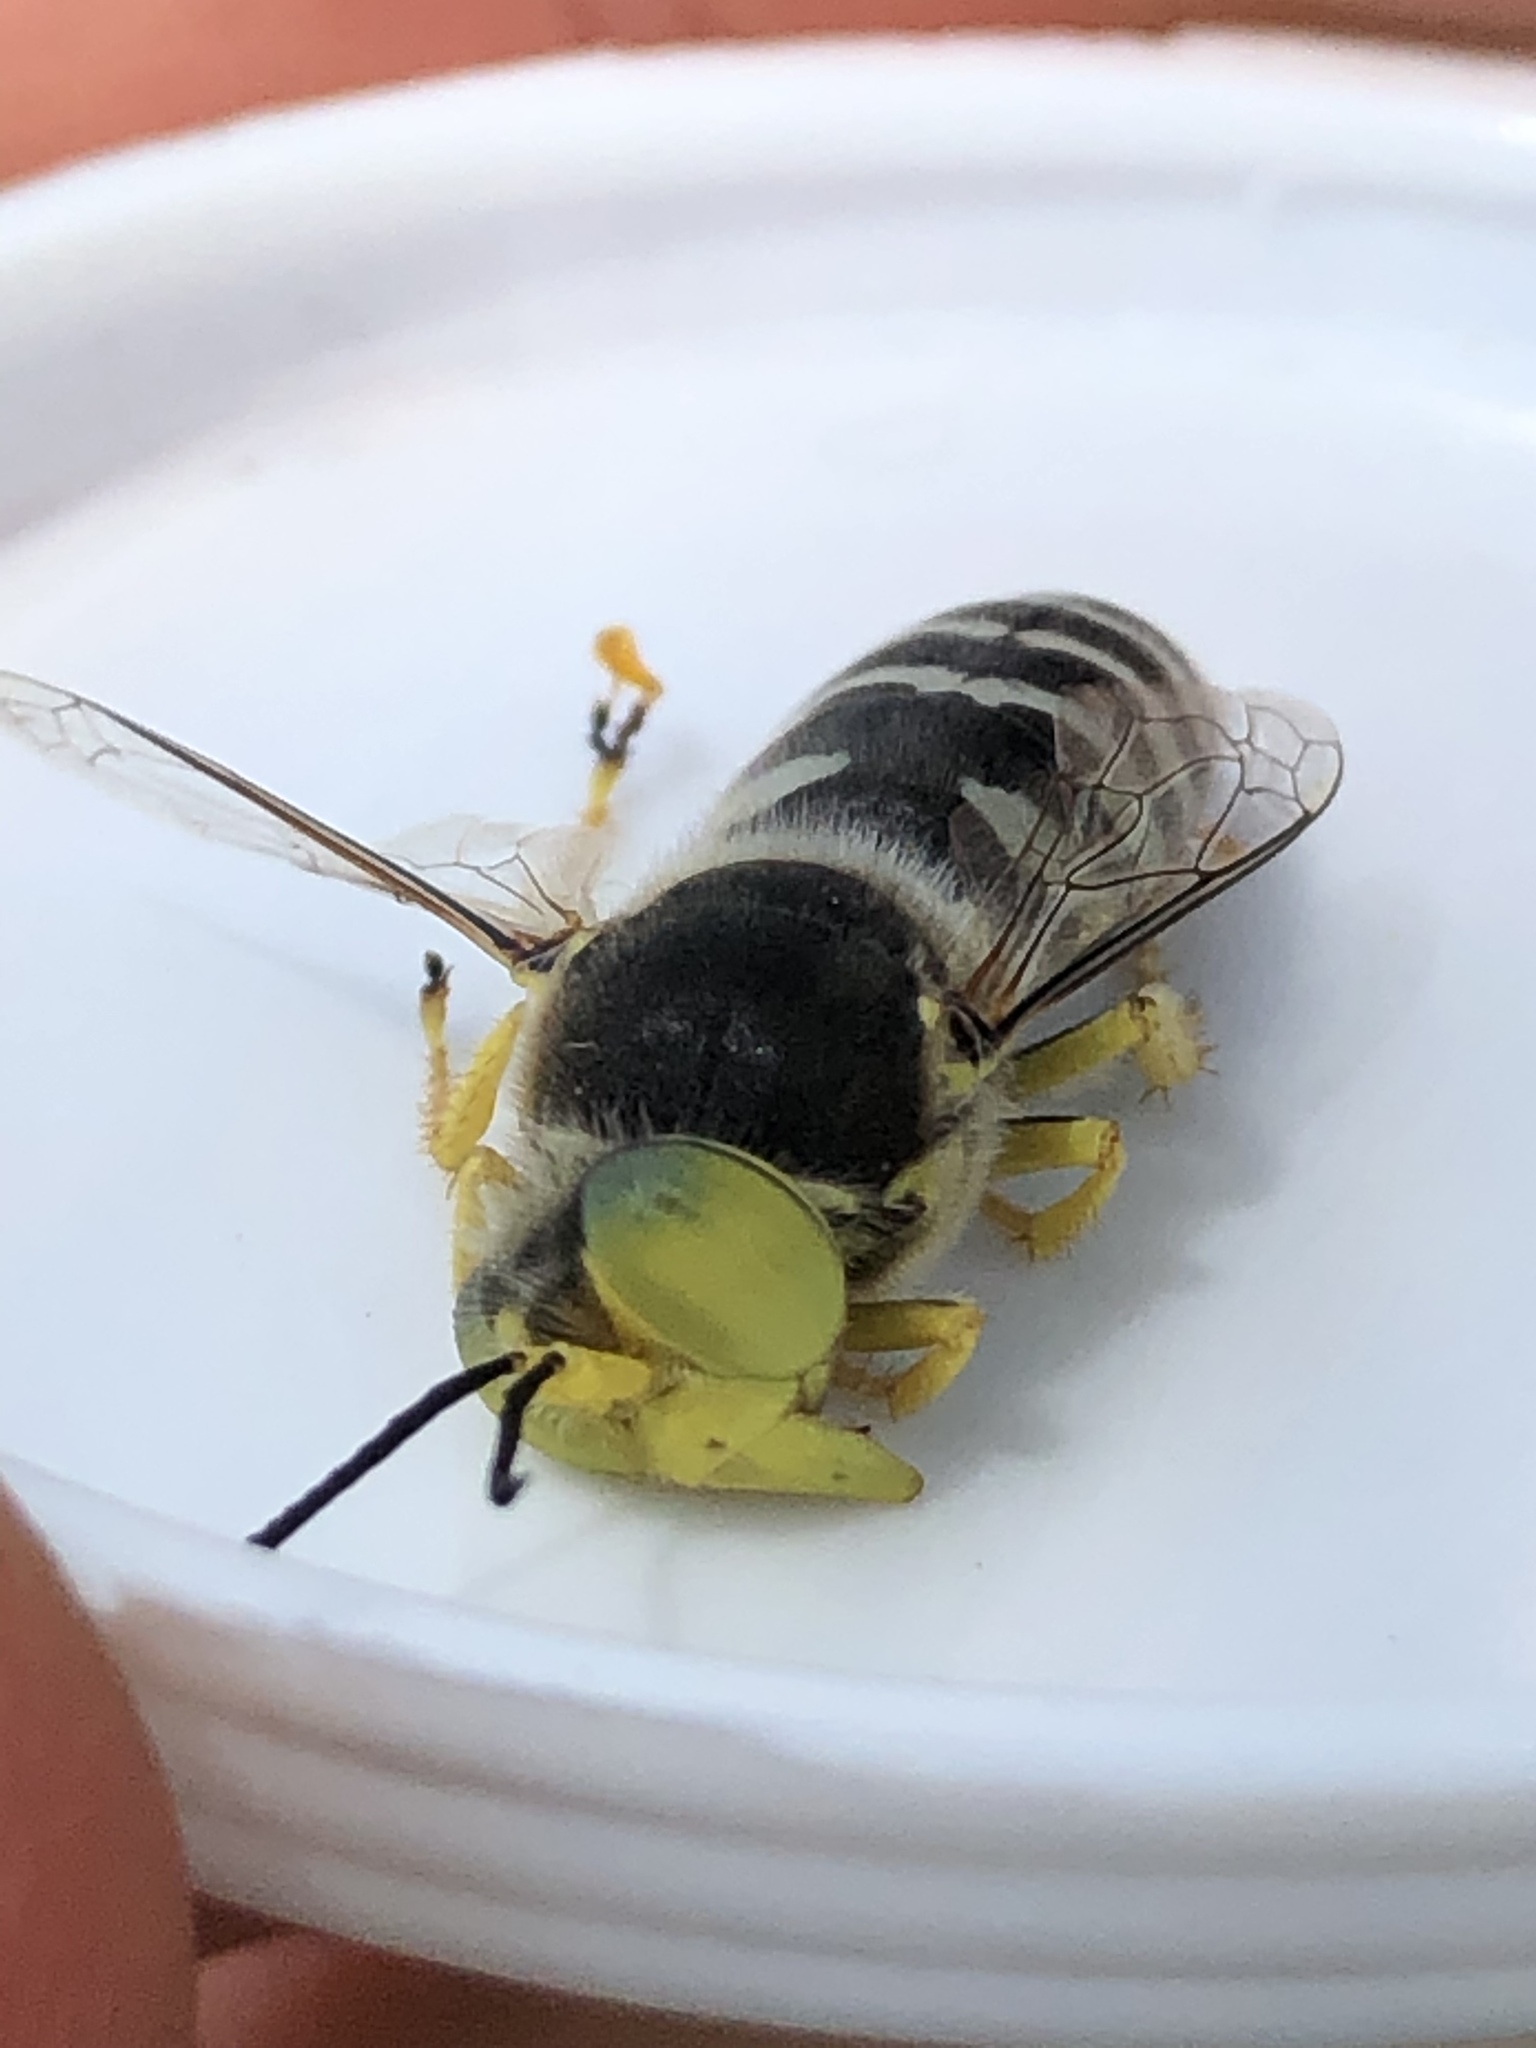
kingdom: Animalia
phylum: Arthropoda
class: Insecta
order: Hymenoptera
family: Crabronidae
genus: Bembix
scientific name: Bembix americana
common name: American sand wasp
